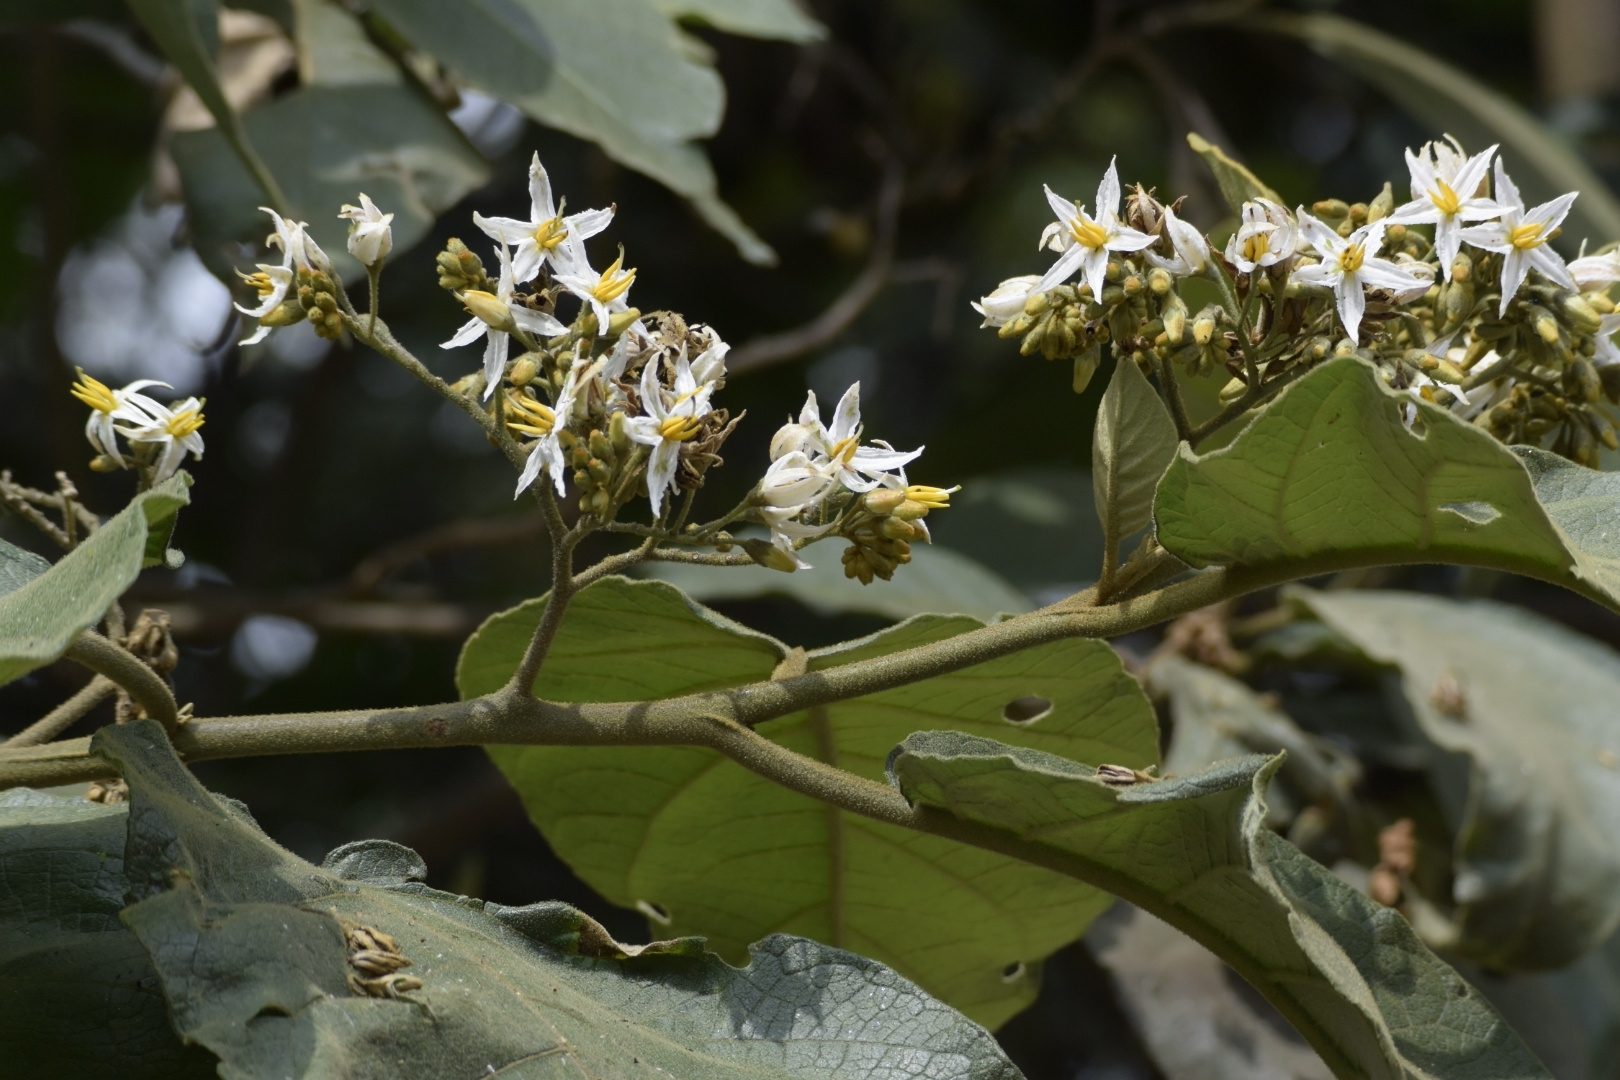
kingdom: Plantae
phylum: Tracheophyta
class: Magnoliopsida
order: Solanales
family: Solanaceae
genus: Solanum
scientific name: Solanum asperolanatum
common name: Devil's-fig
